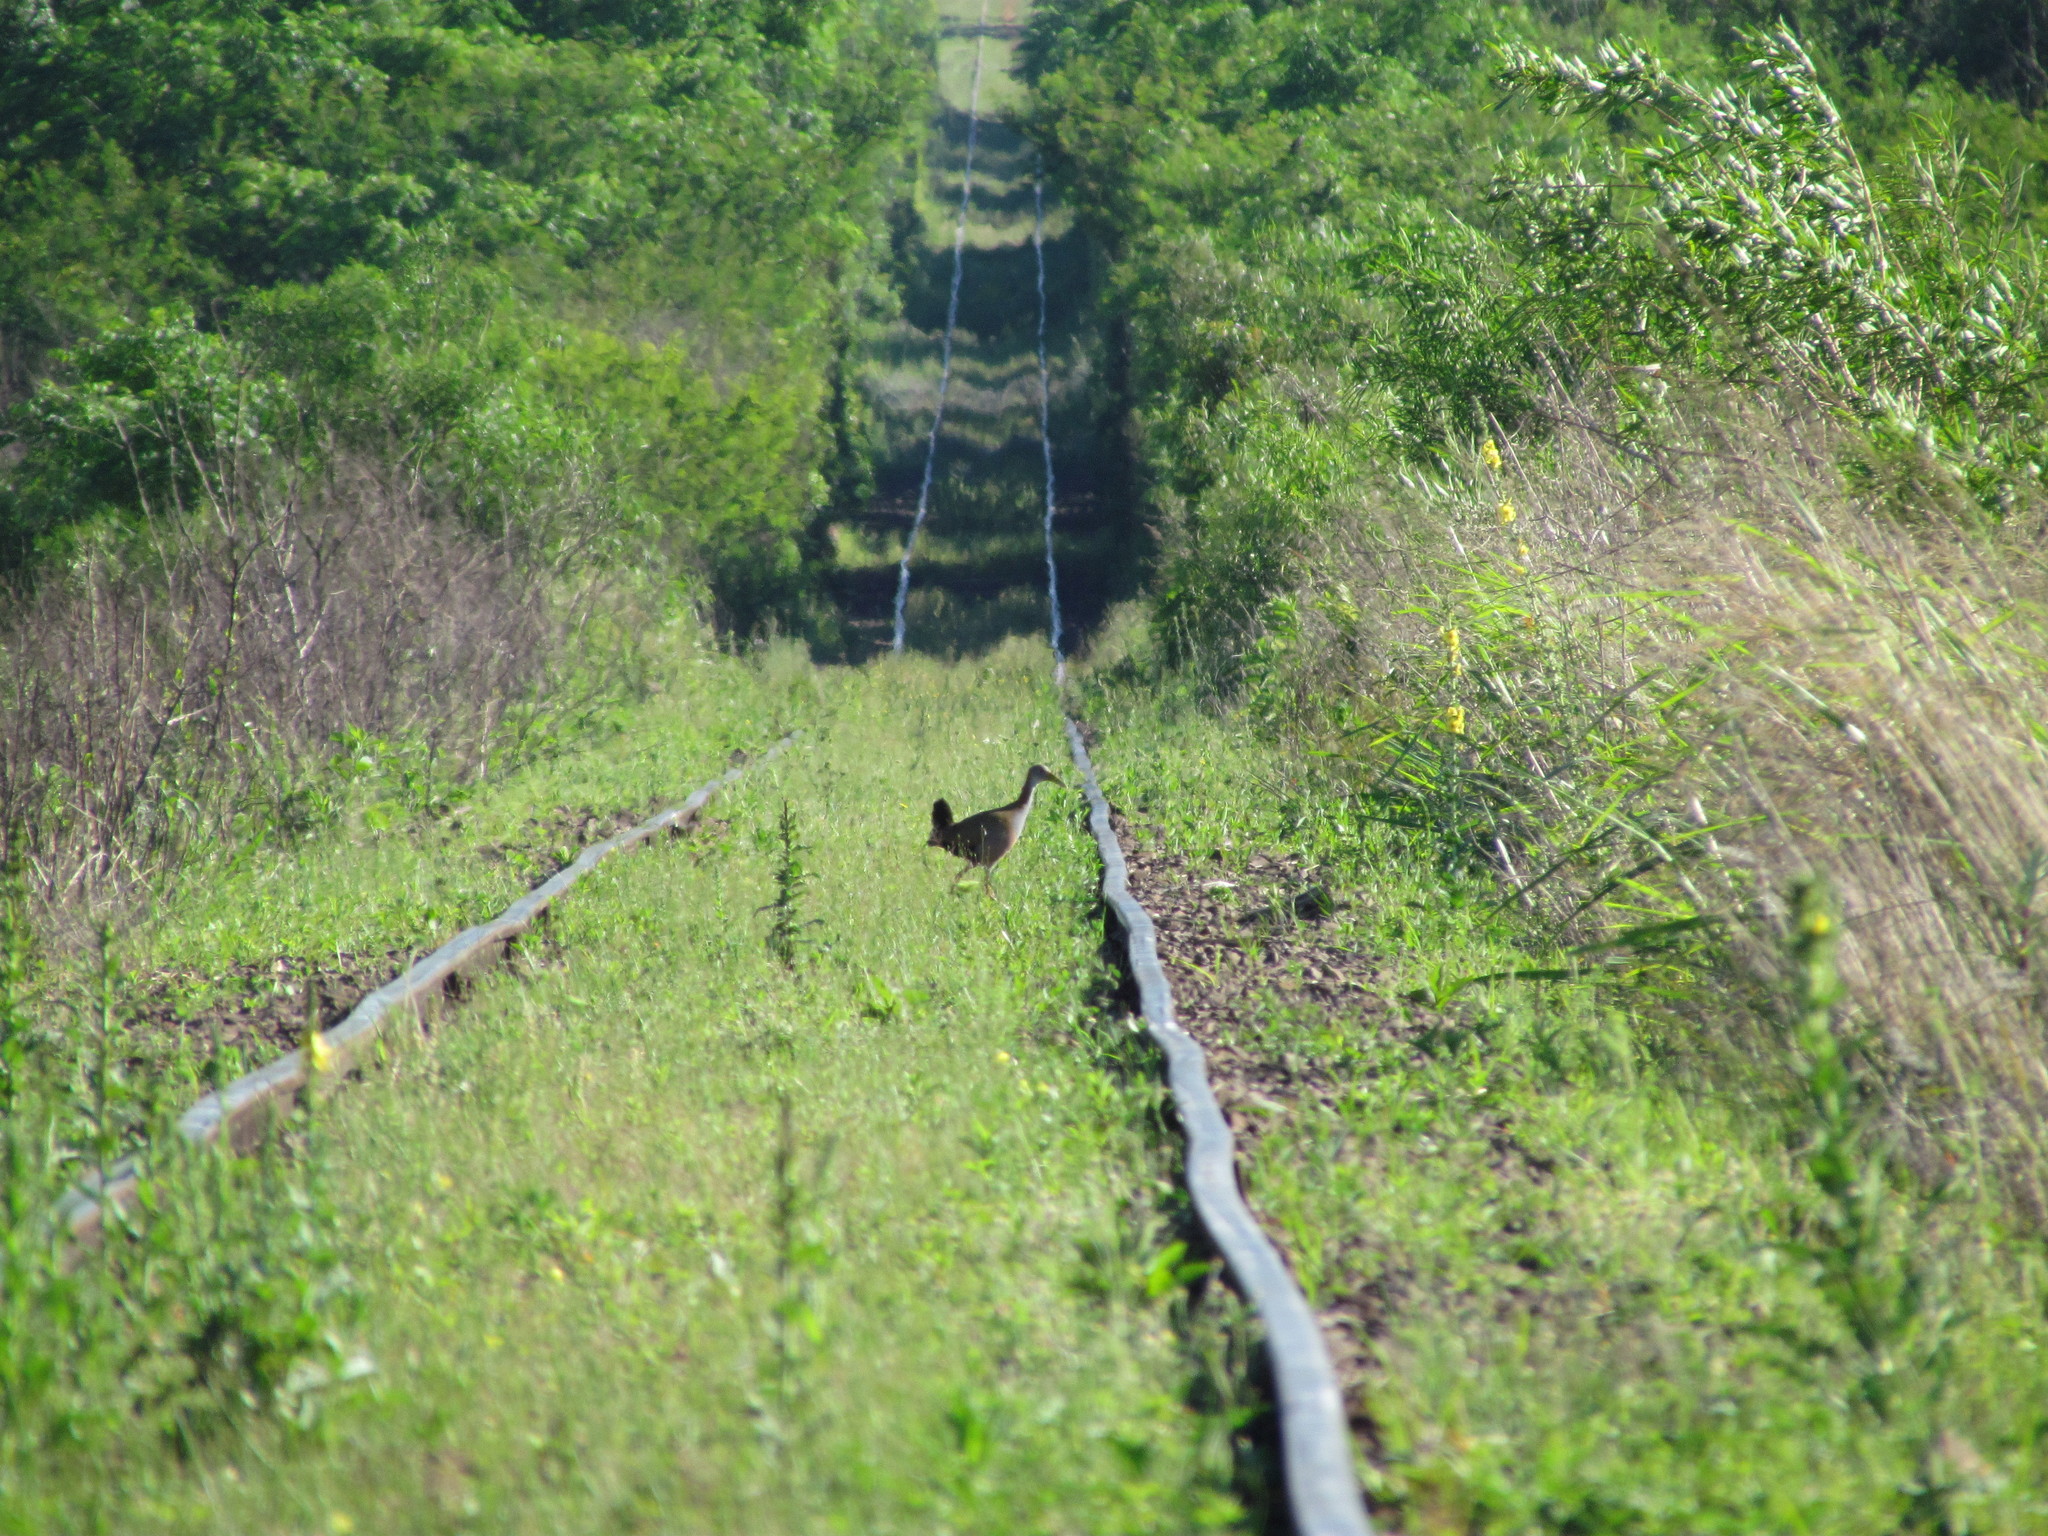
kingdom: Animalia
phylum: Chordata
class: Aves
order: Gruiformes
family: Rallidae
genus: Aramides
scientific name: Aramides ypecaha
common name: Giant wood rail
